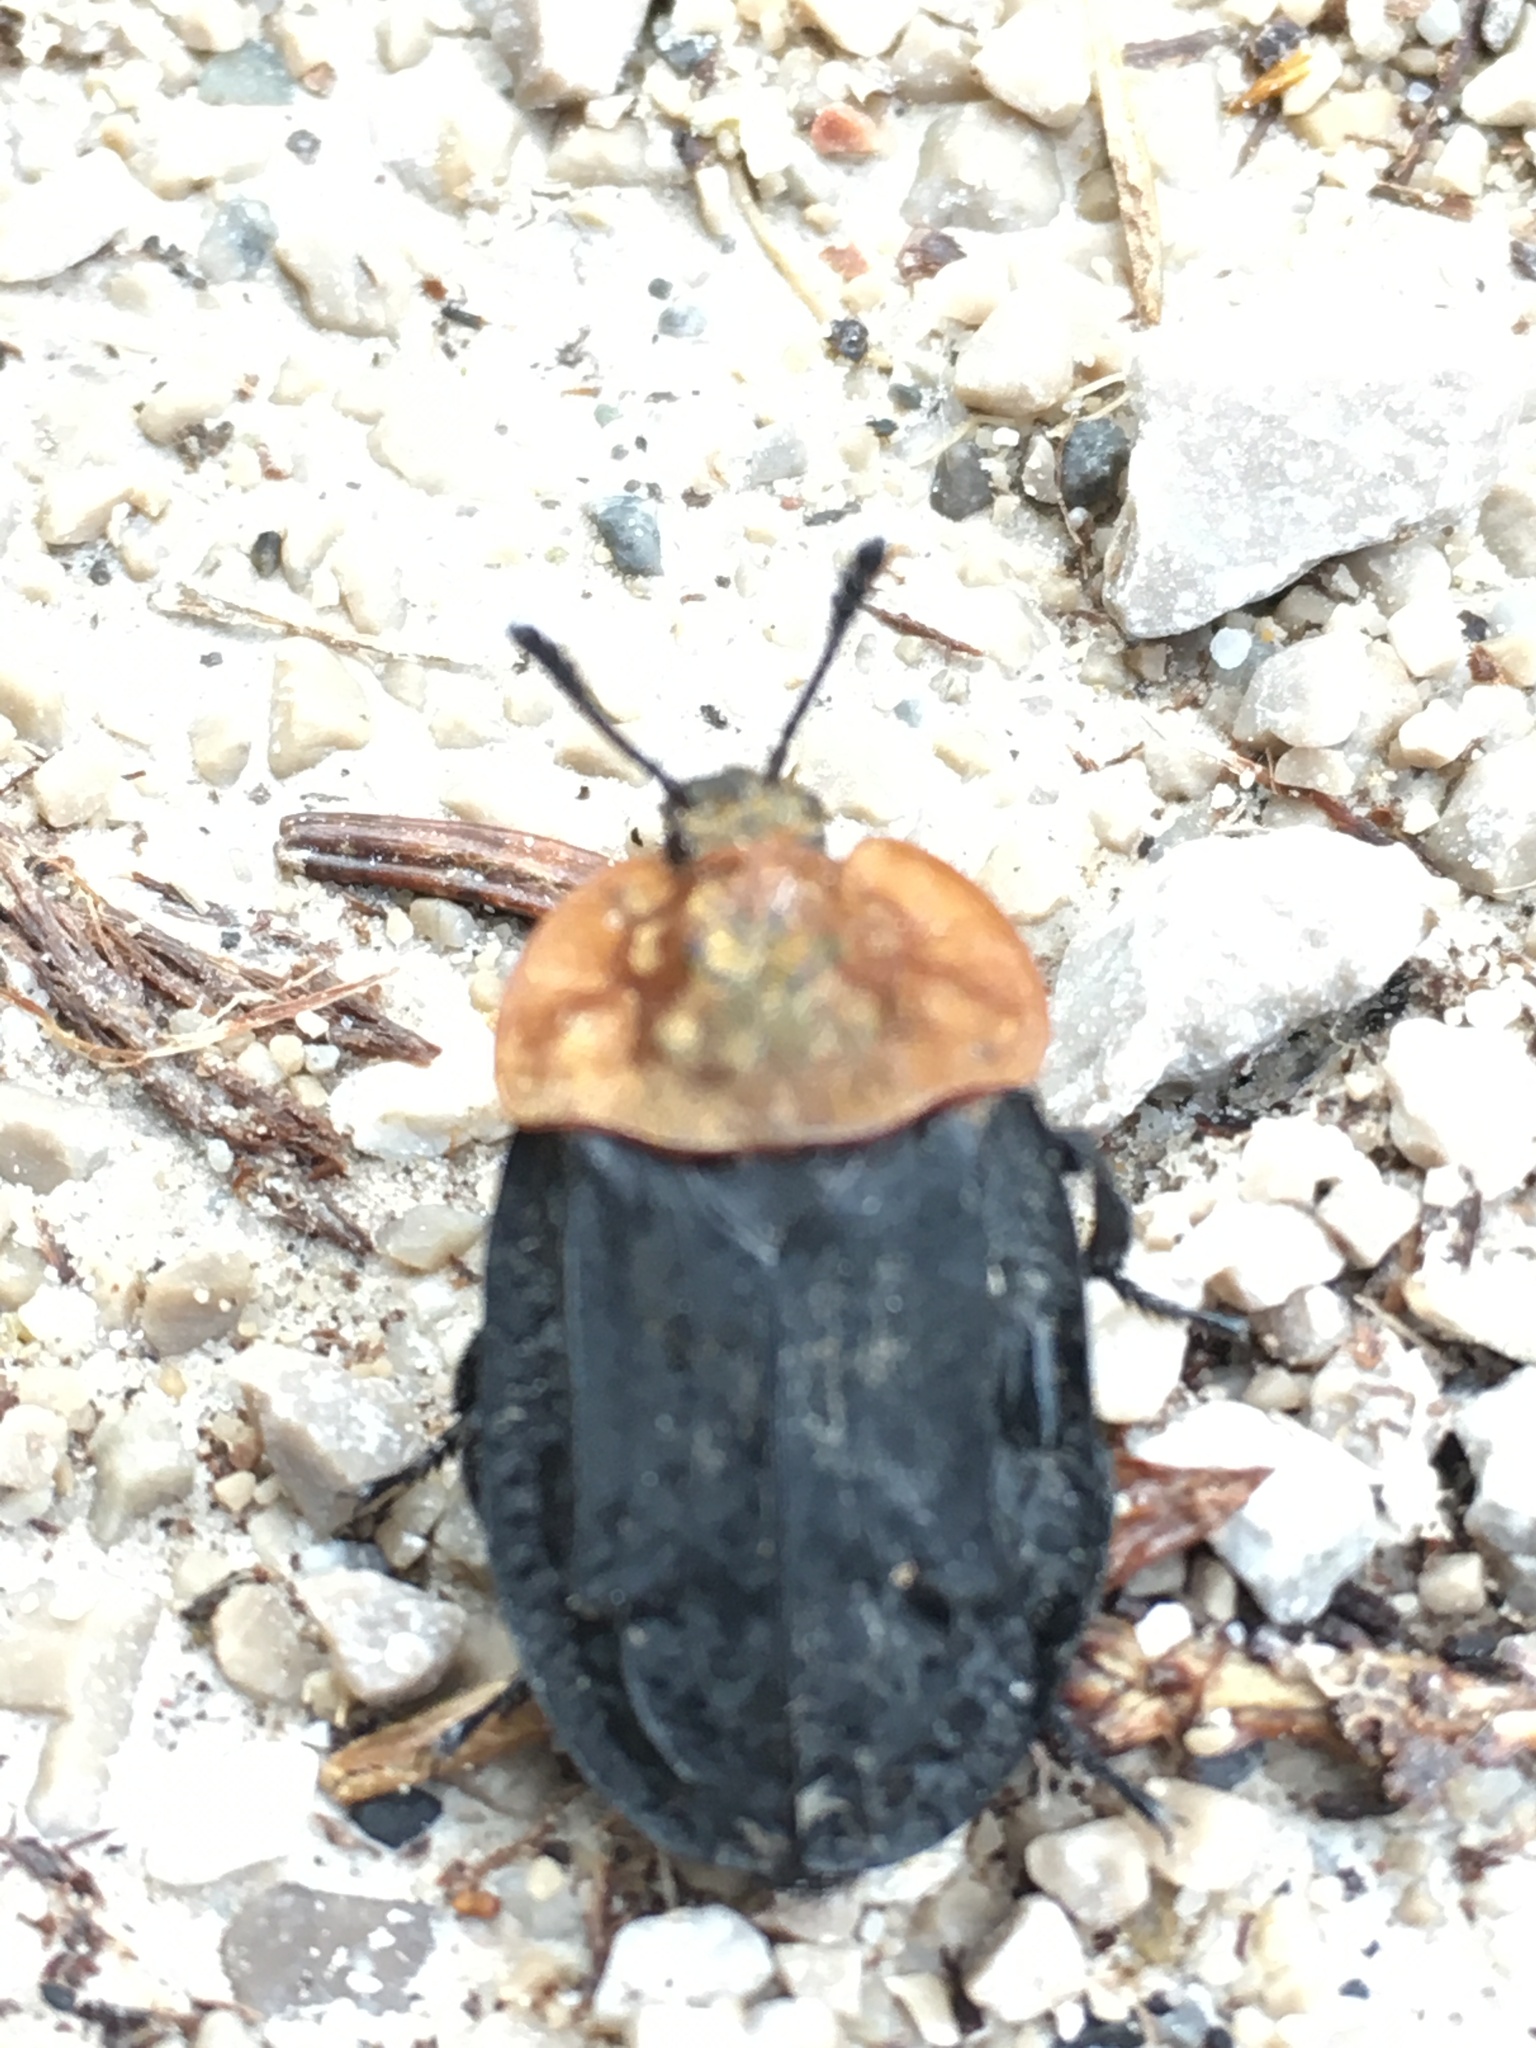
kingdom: Animalia
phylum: Arthropoda
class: Insecta
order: Coleoptera
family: Staphylinidae
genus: Oiceoptoma
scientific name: Oiceoptoma thoracicum
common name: Red-breasted carrion beetle
